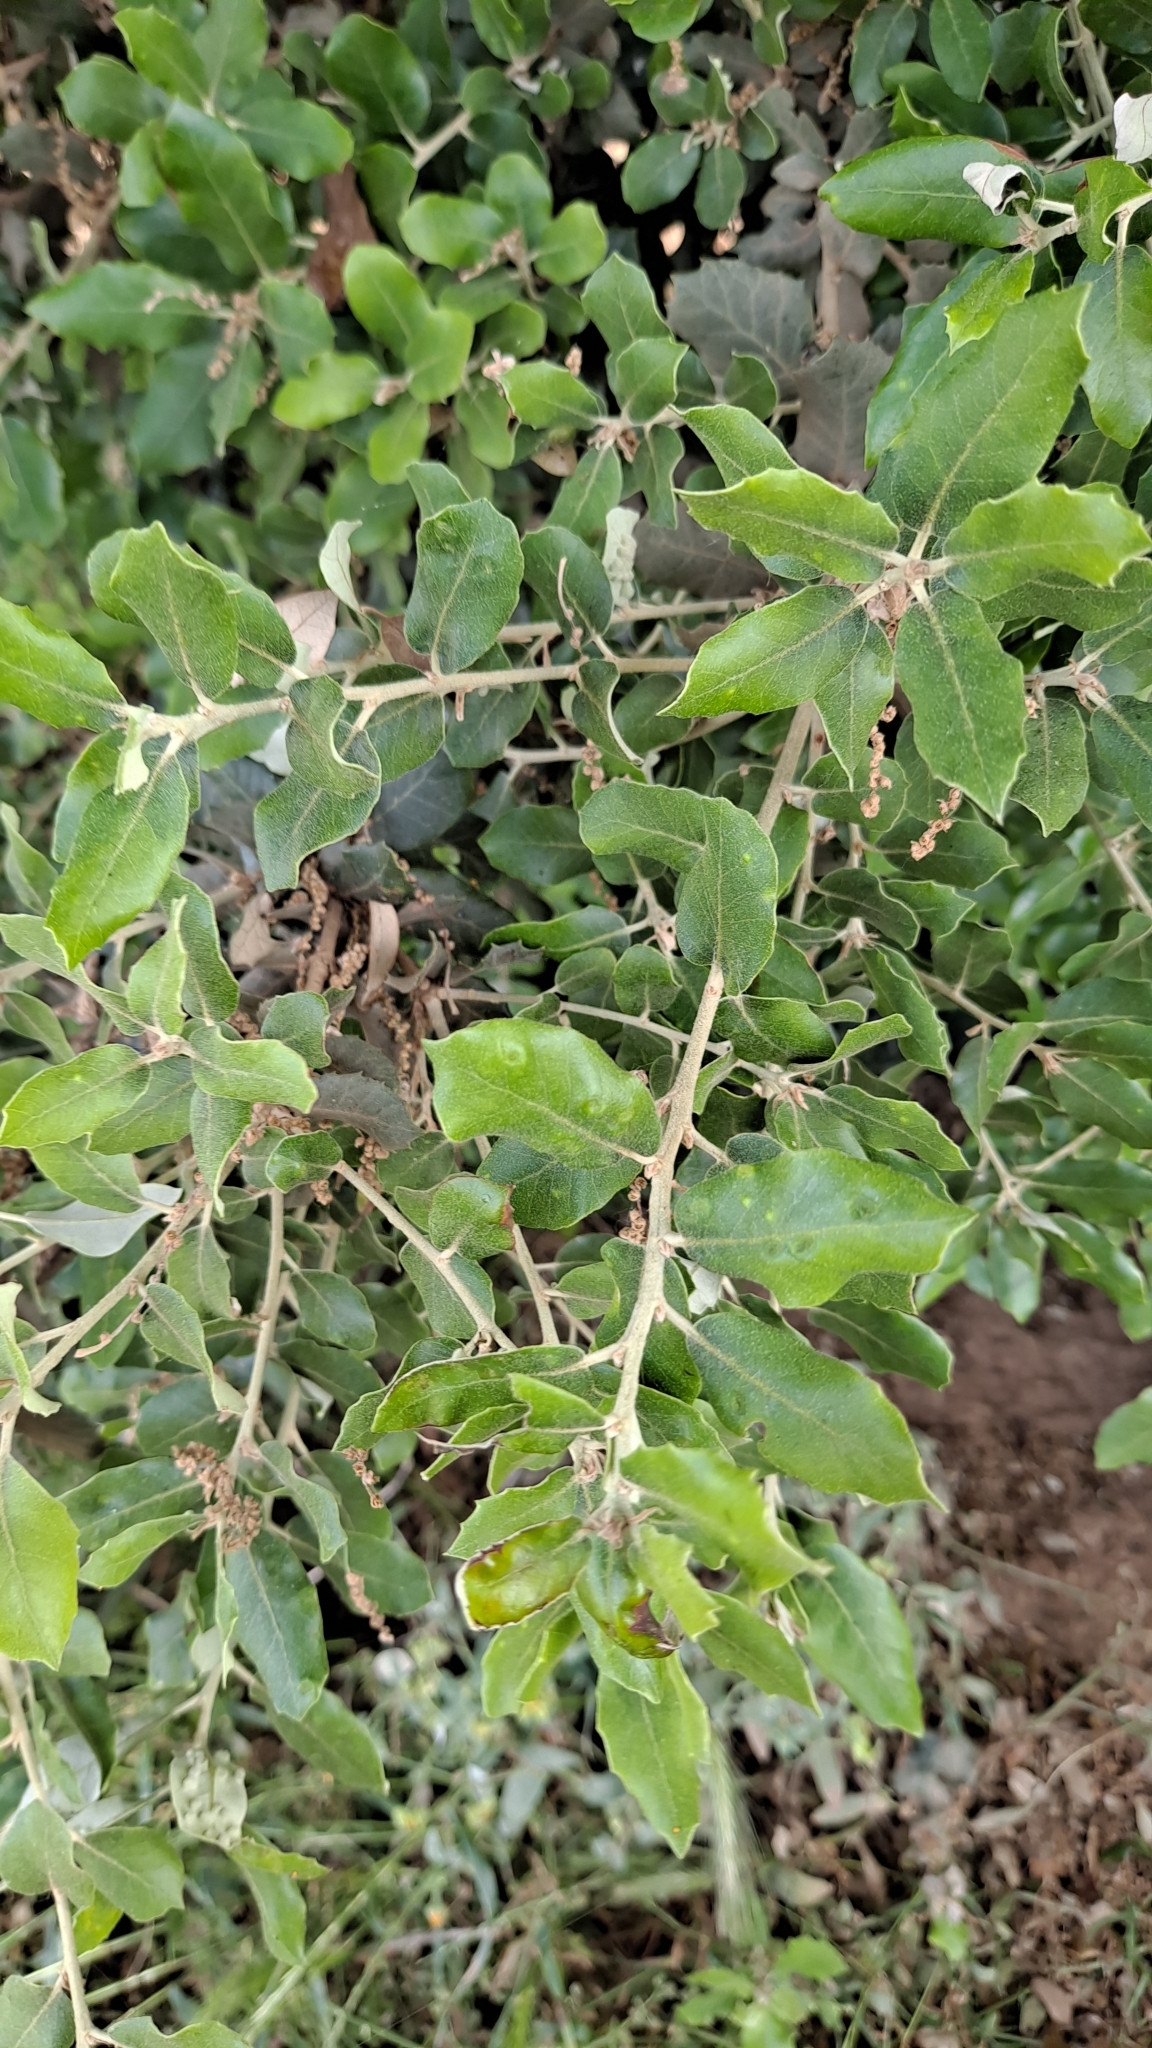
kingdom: Plantae
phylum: Tracheophyta
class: Magnoliopsida
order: Fagales
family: Fagaceae
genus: Quercus
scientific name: Quercus ilex
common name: Evergreen oak
